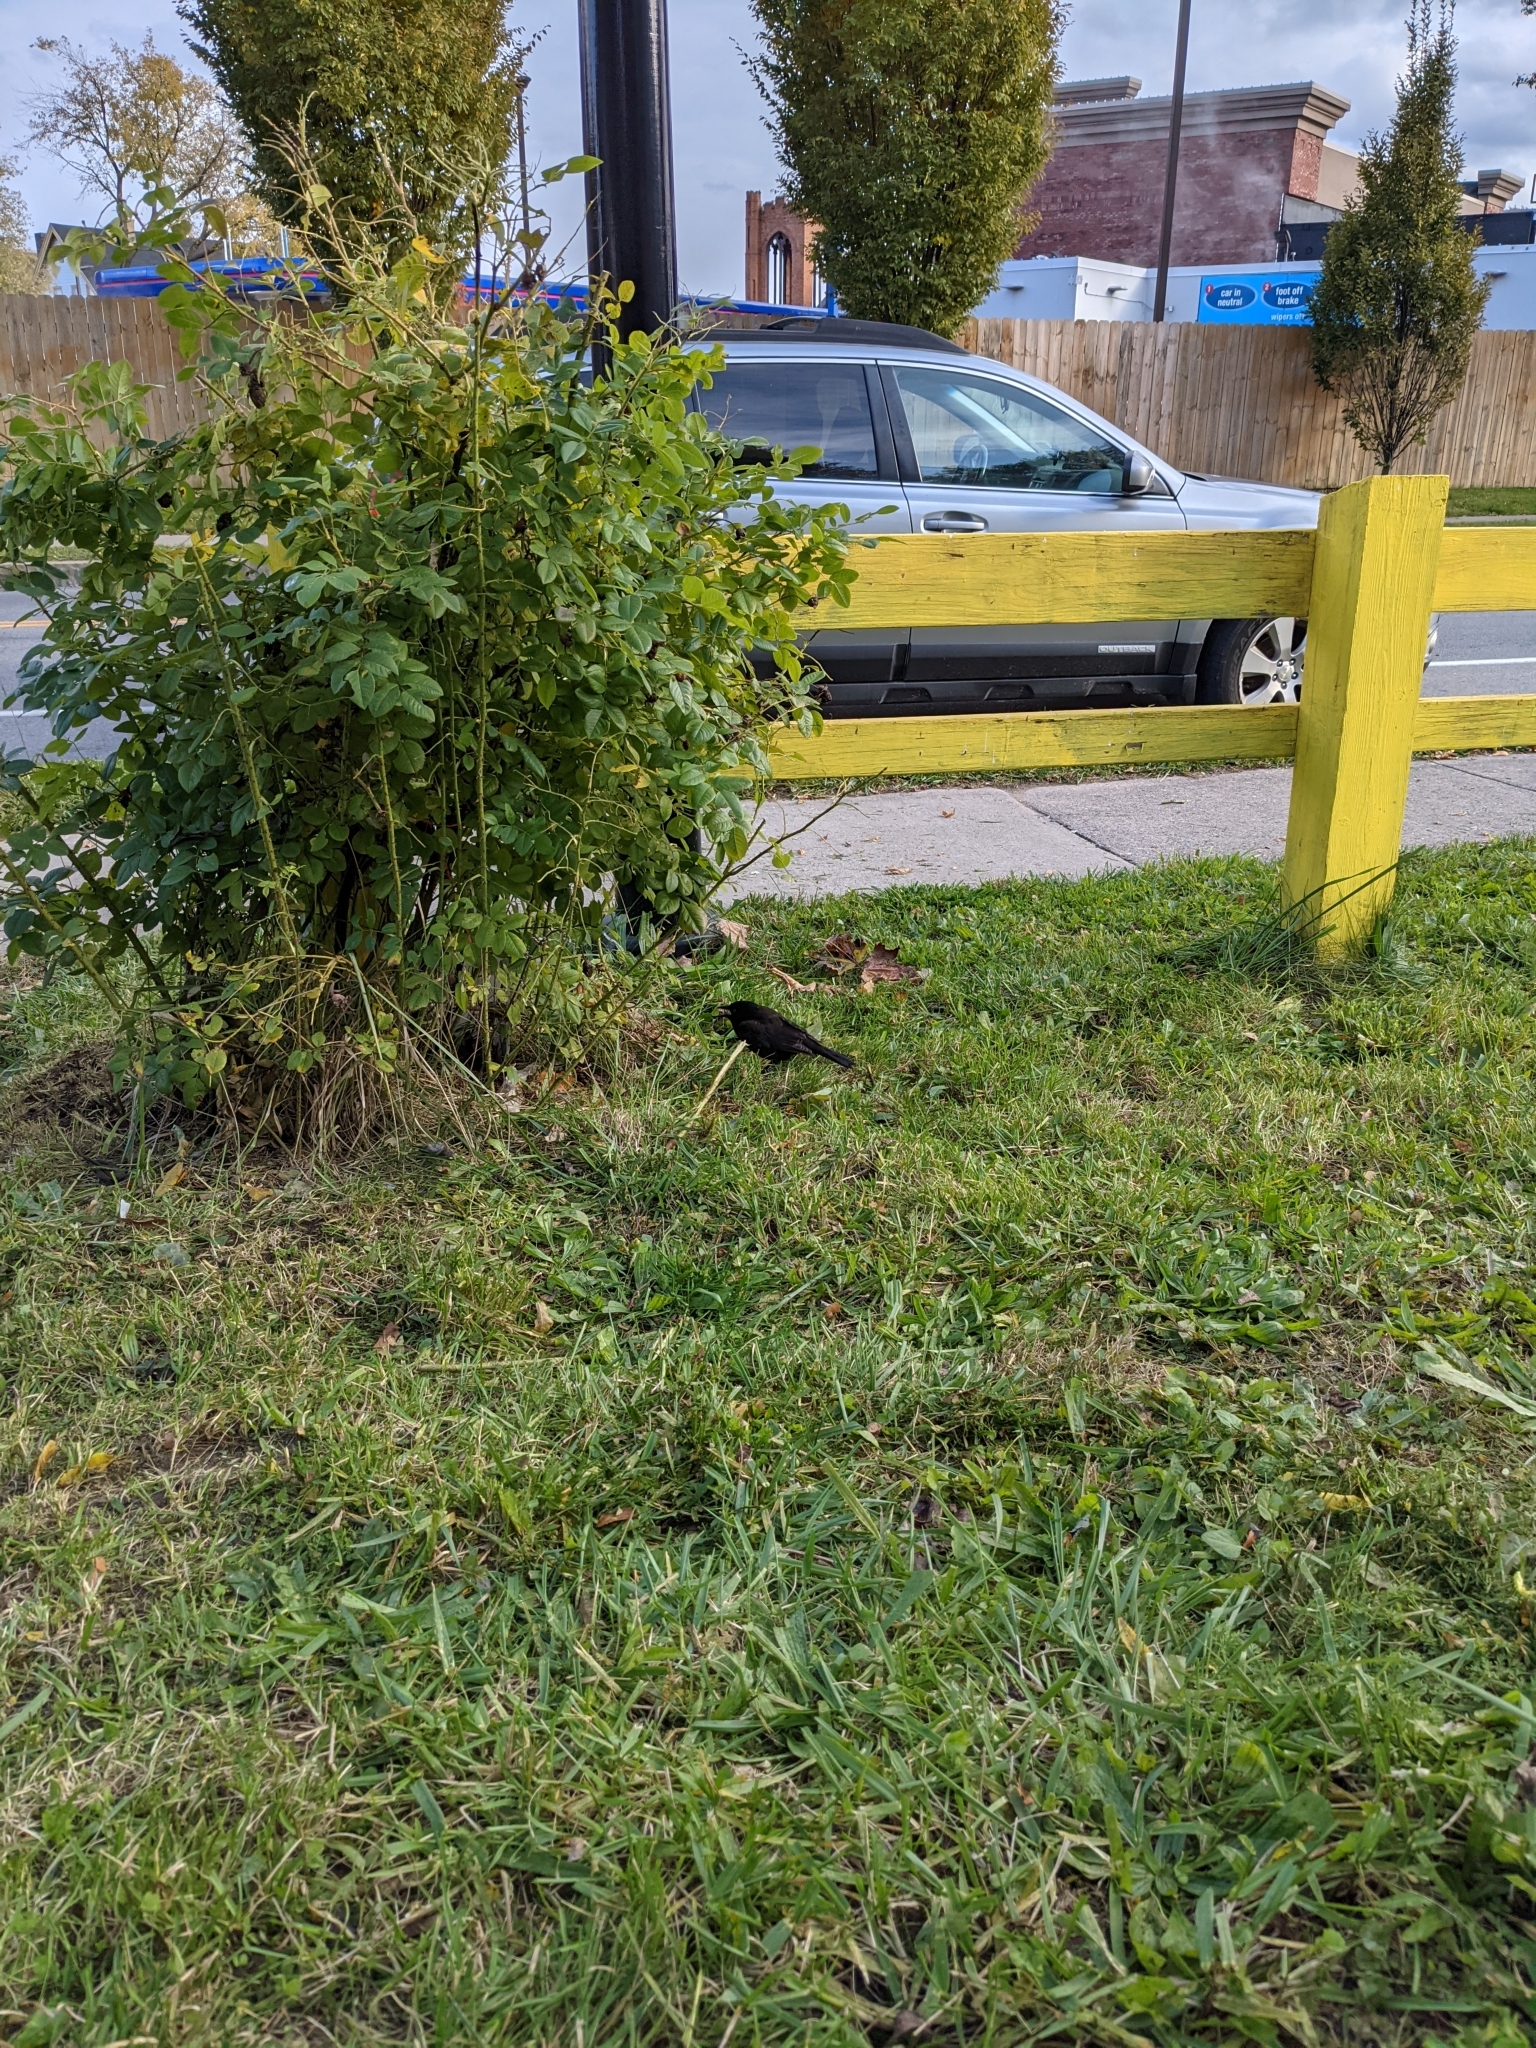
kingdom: Animalia
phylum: Chordata
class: Aves
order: Passeriformes
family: Icteridae
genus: Quiscalus
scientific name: Quiscalus quiscula
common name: Common grackle
